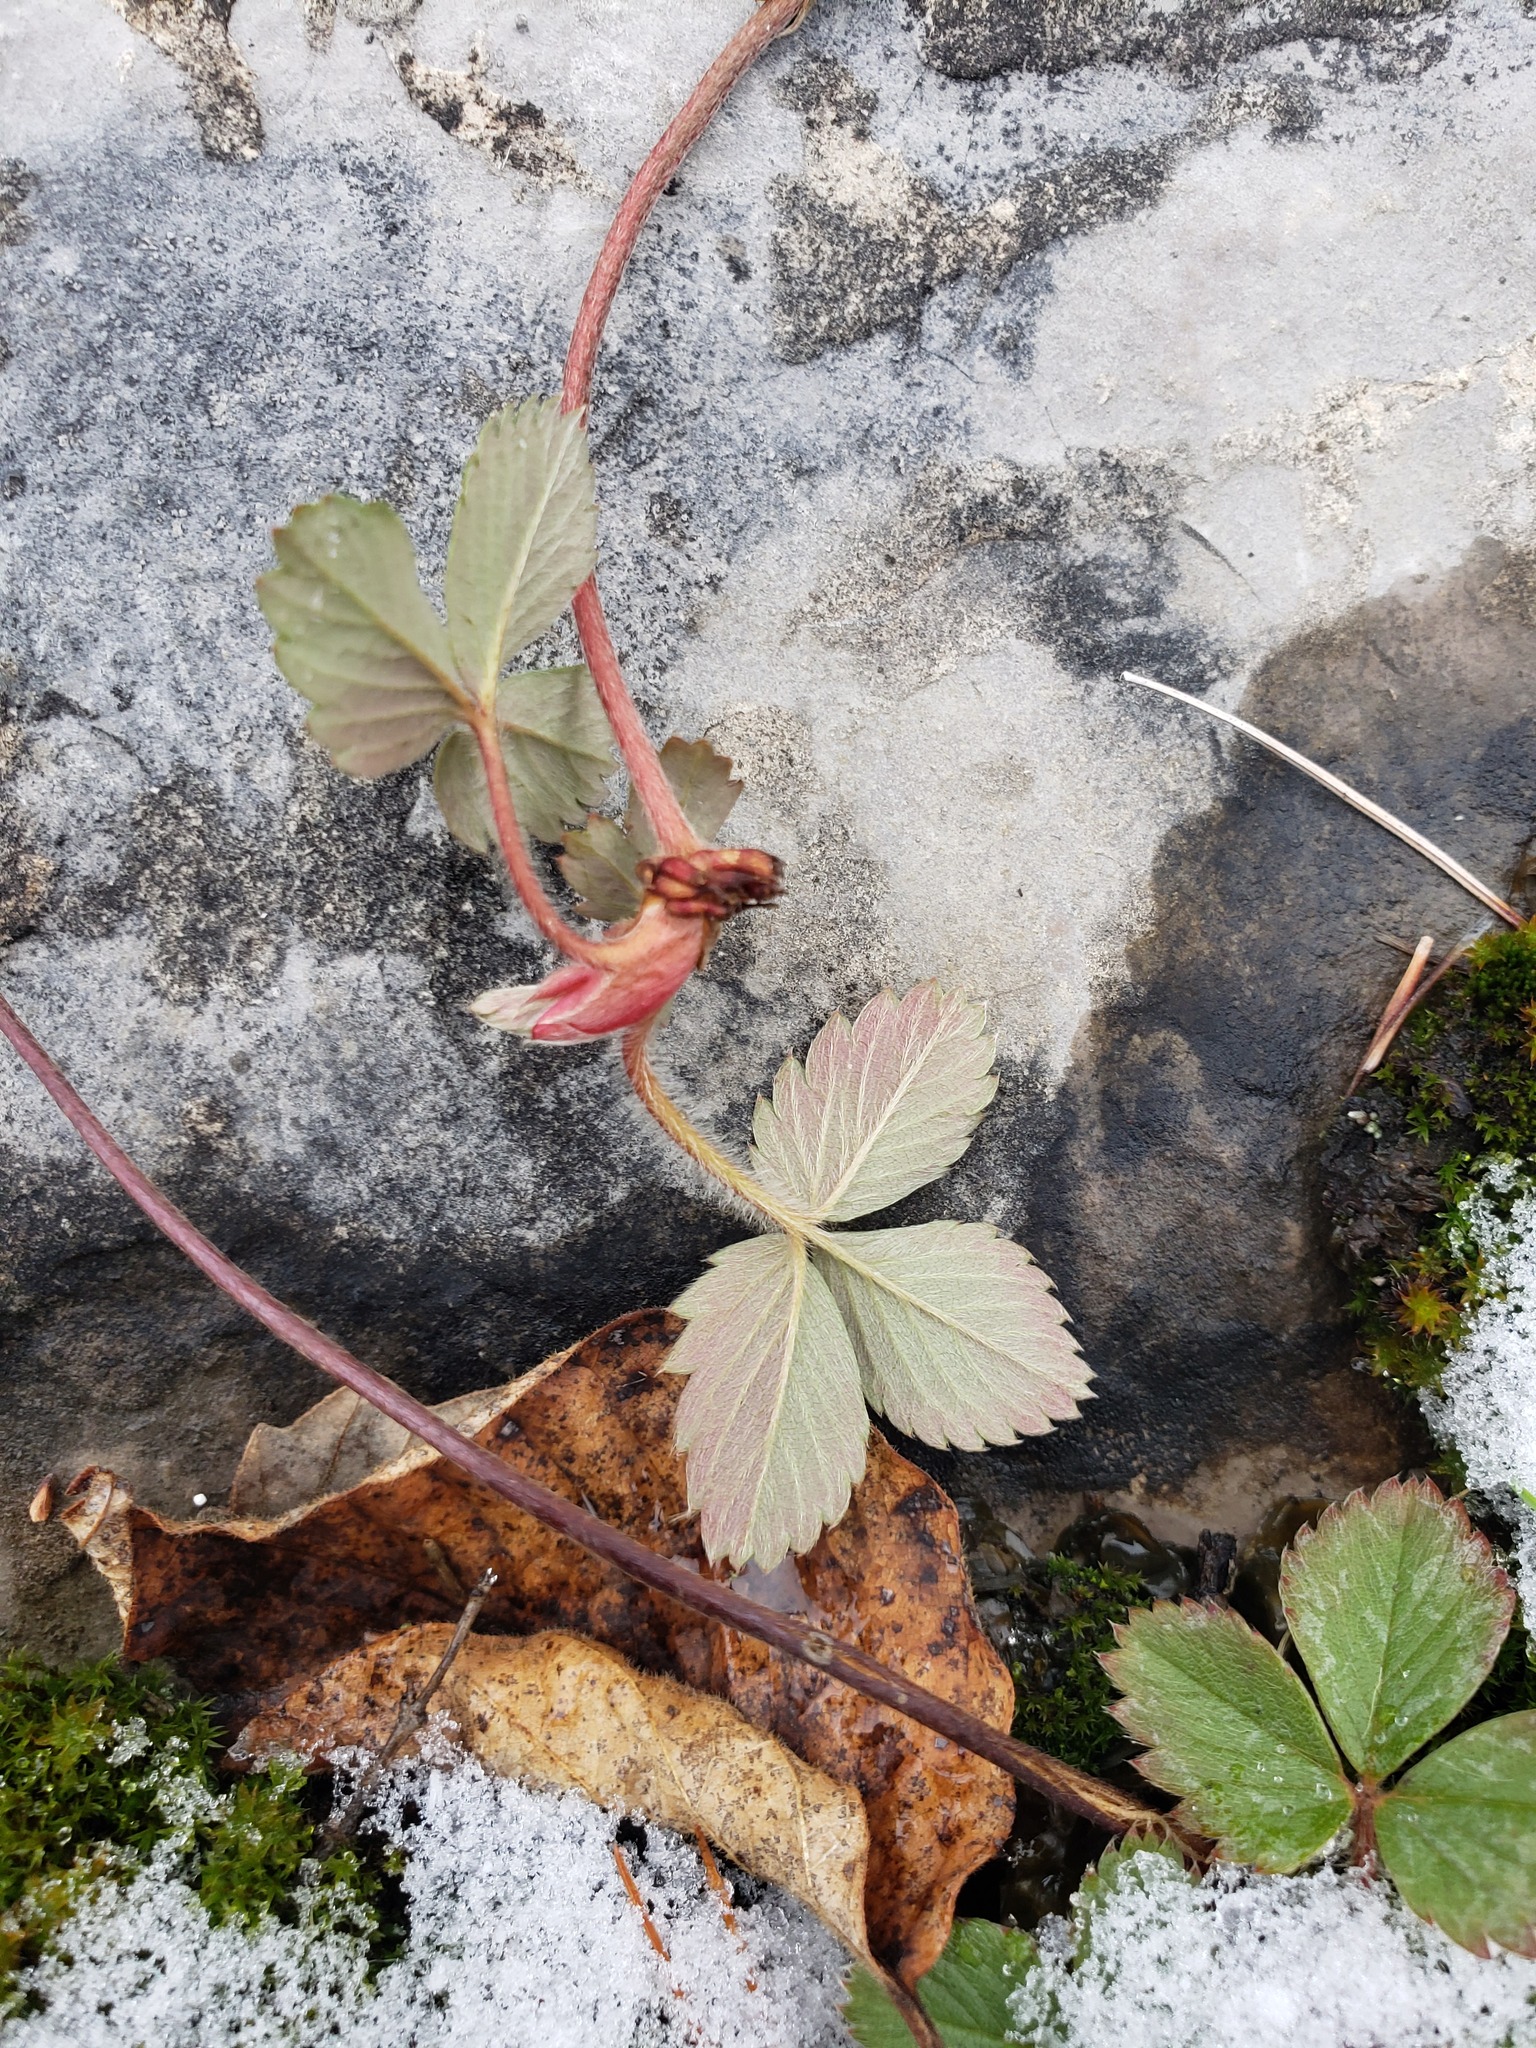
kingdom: Plantae
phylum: Tracheophyta
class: Magnoliopsida
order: Rosales
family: Rosaceae
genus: Fragaria
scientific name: Fragaria virginiana
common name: Thickleaved wild strawberry
